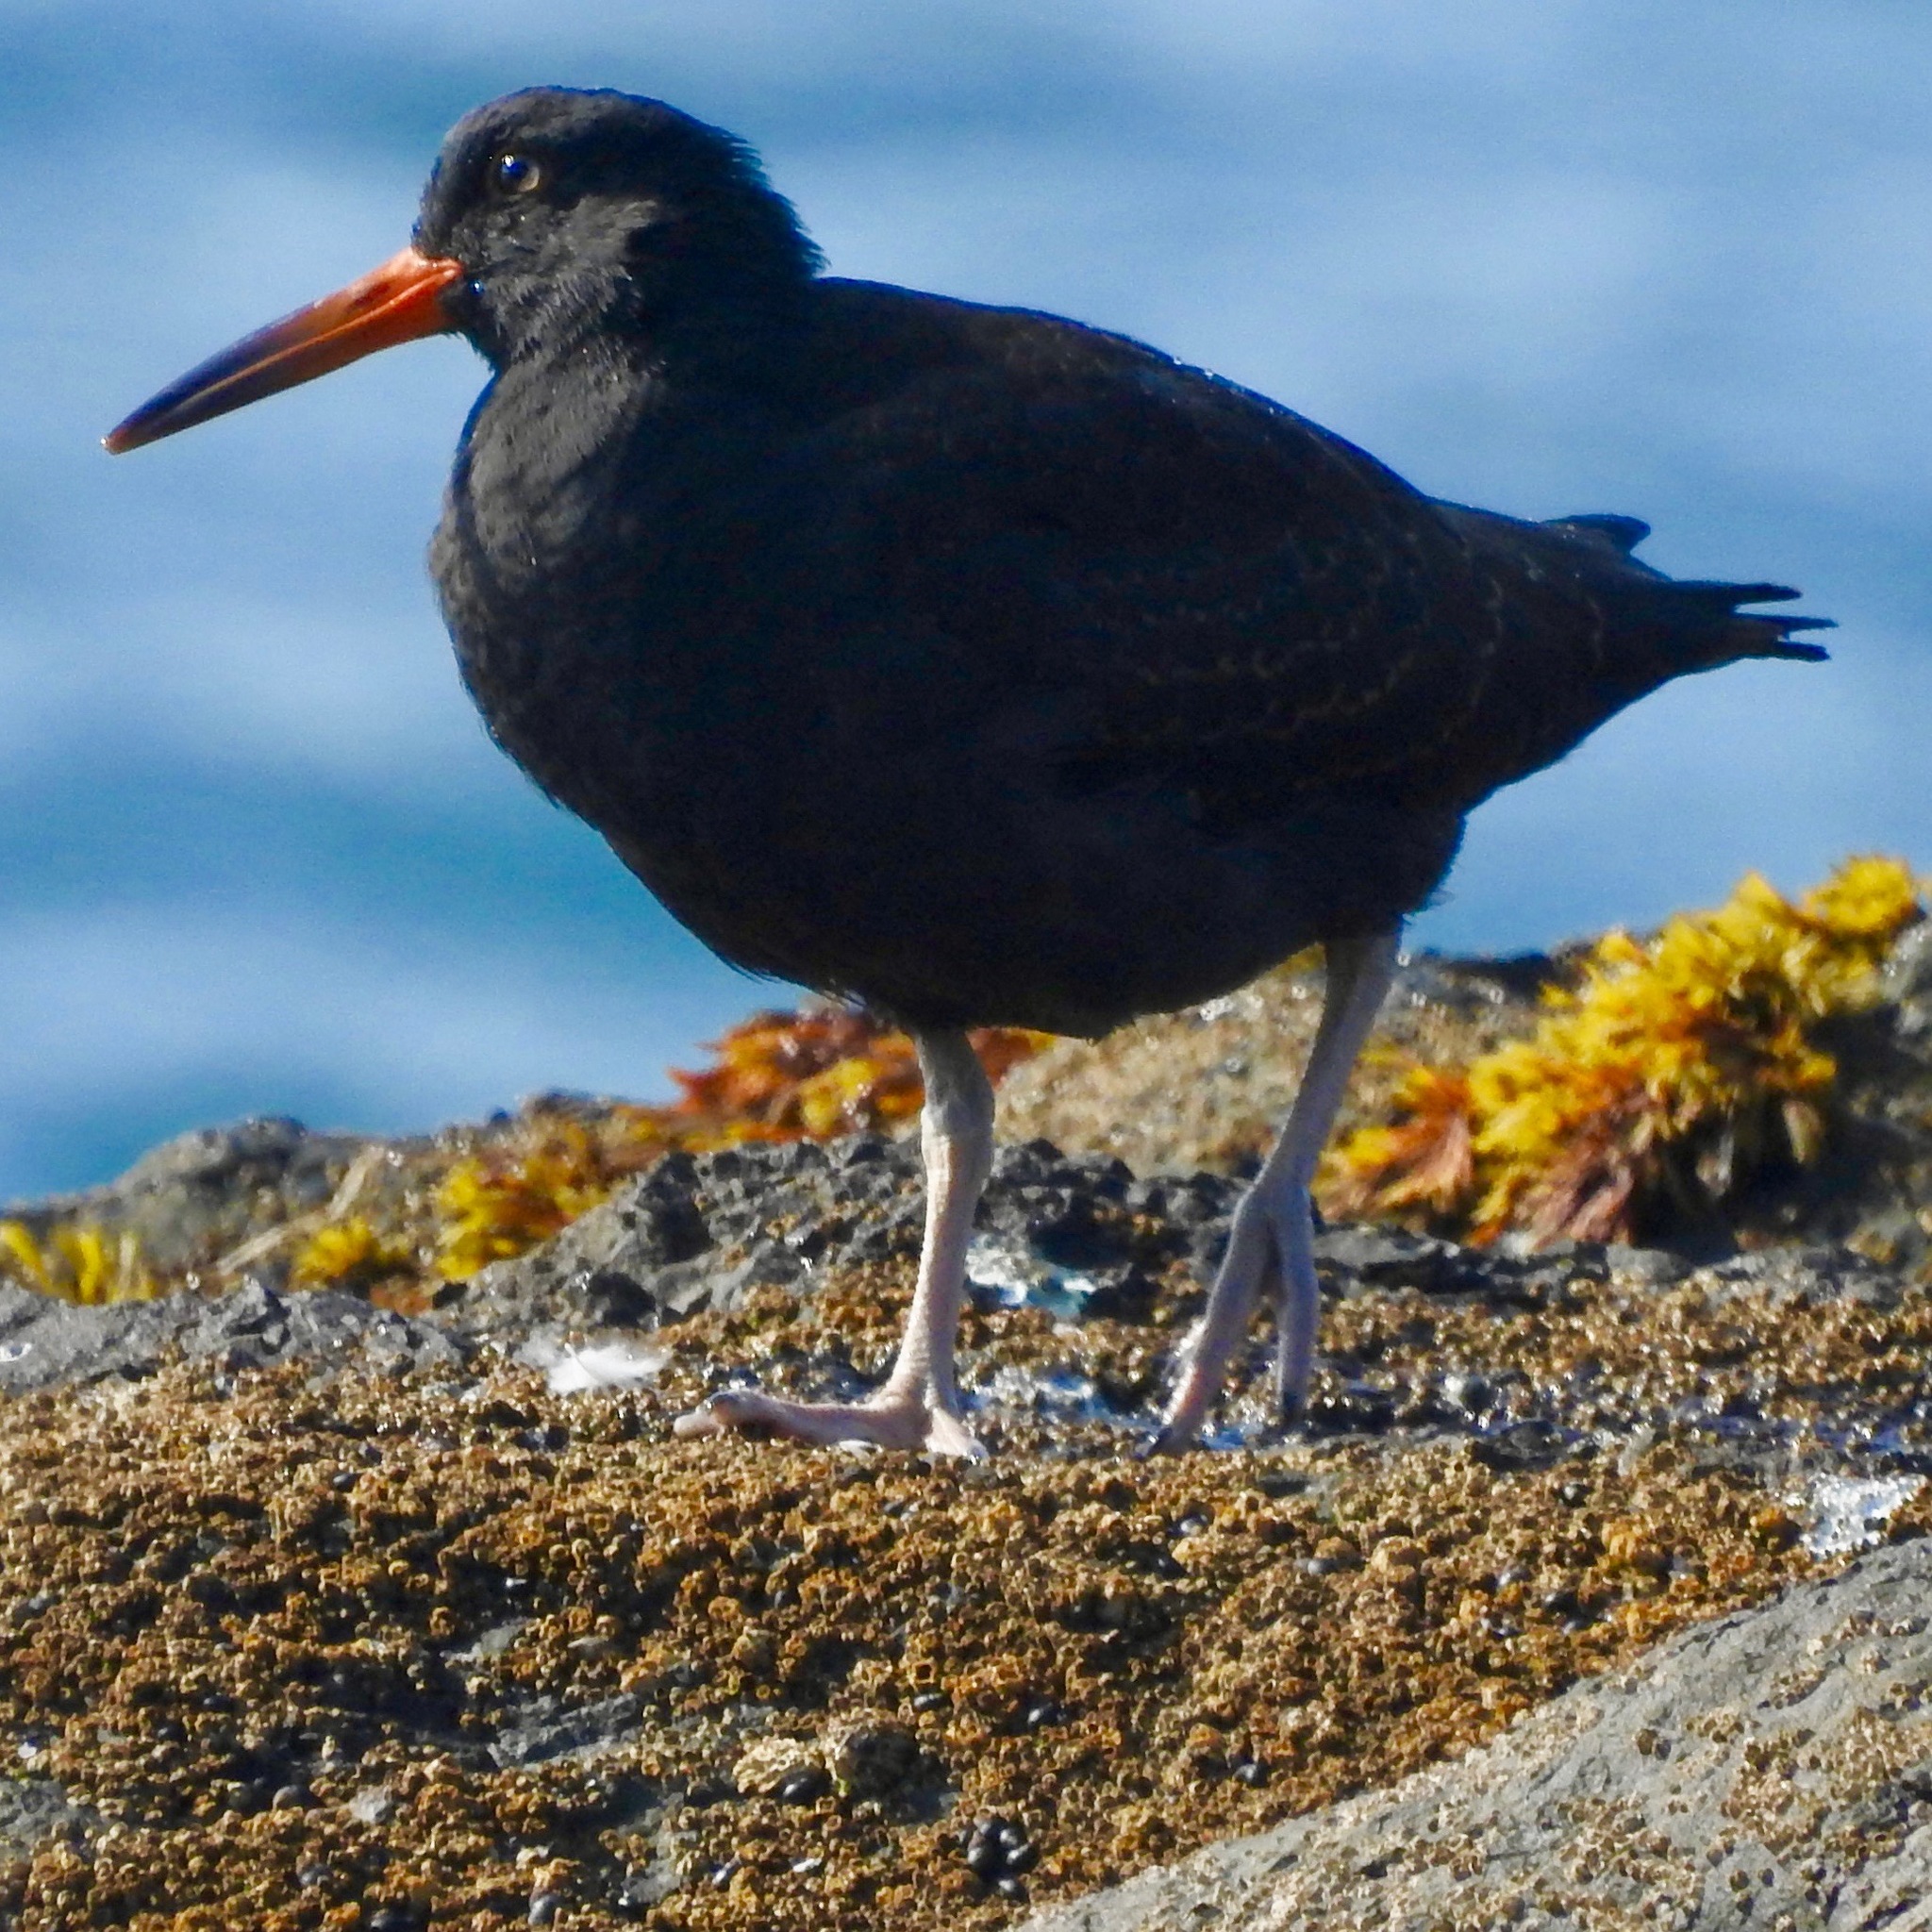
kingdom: Animalia
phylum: Chordata
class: Aves
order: Charadriiformes
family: Haematopodidae
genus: Haematopus
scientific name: Haematopus bachmani
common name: Black oystercatcher
